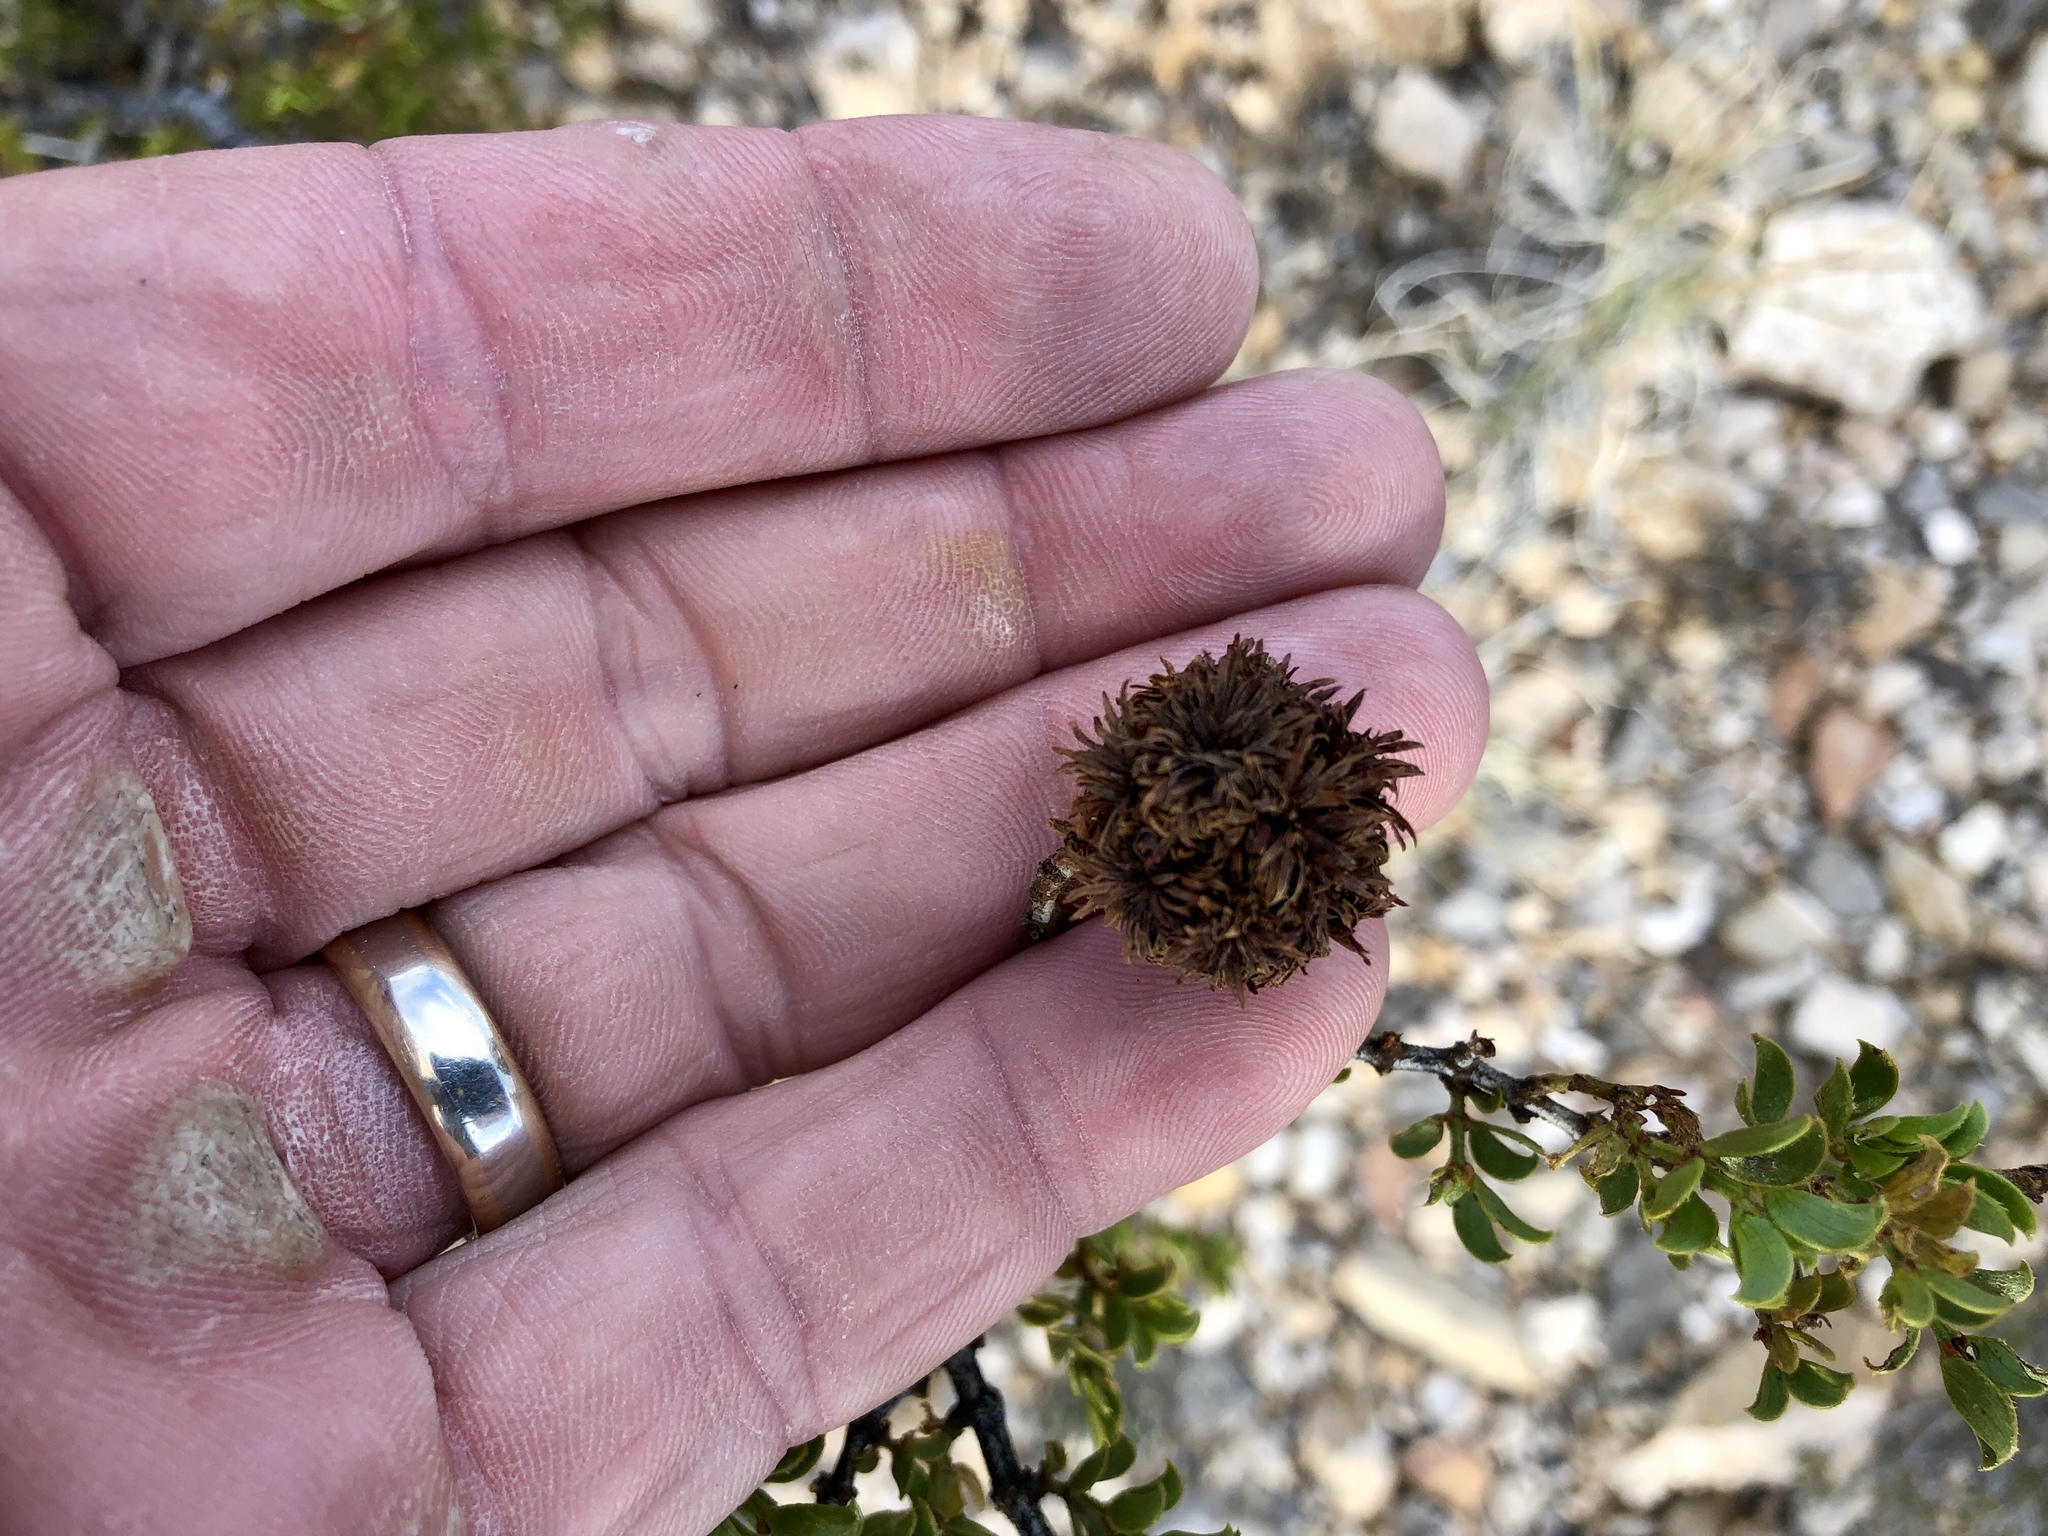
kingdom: Animalia
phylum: Arthropoda
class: Insecta
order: Diptera
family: Cecidomyiidae
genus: Asphondylia
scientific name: Asphondylia auripila
